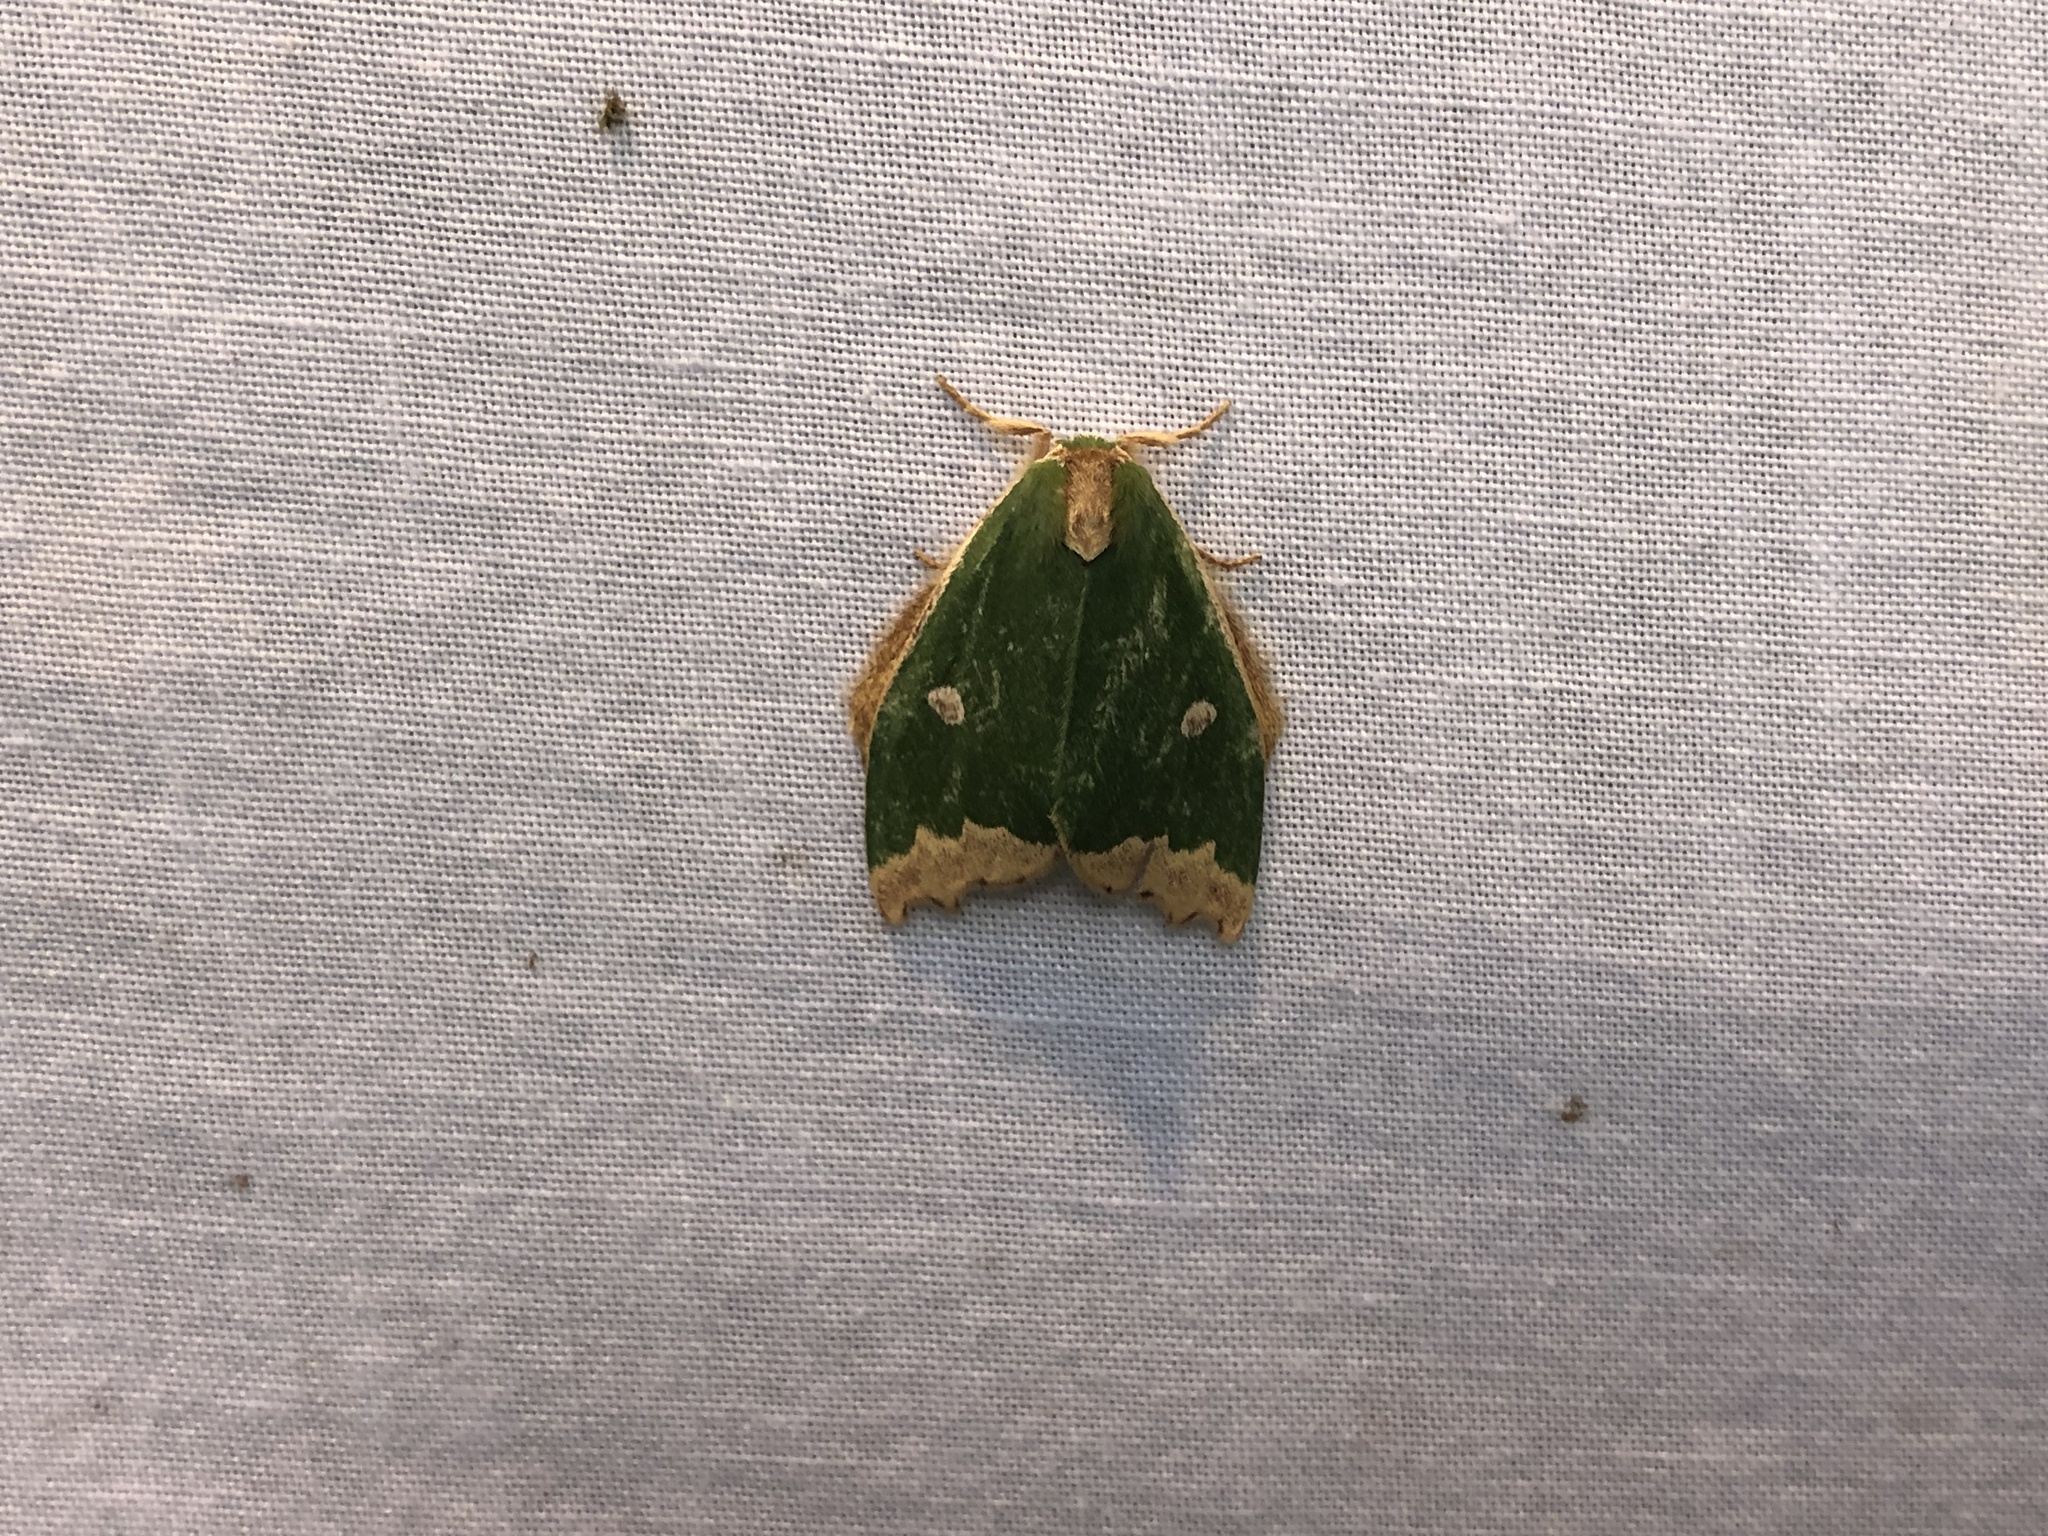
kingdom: Animalia
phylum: Arthropoda
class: Insecta
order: Lepidoptera
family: Notodontidae
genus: Rosema
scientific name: Rosema epigena
